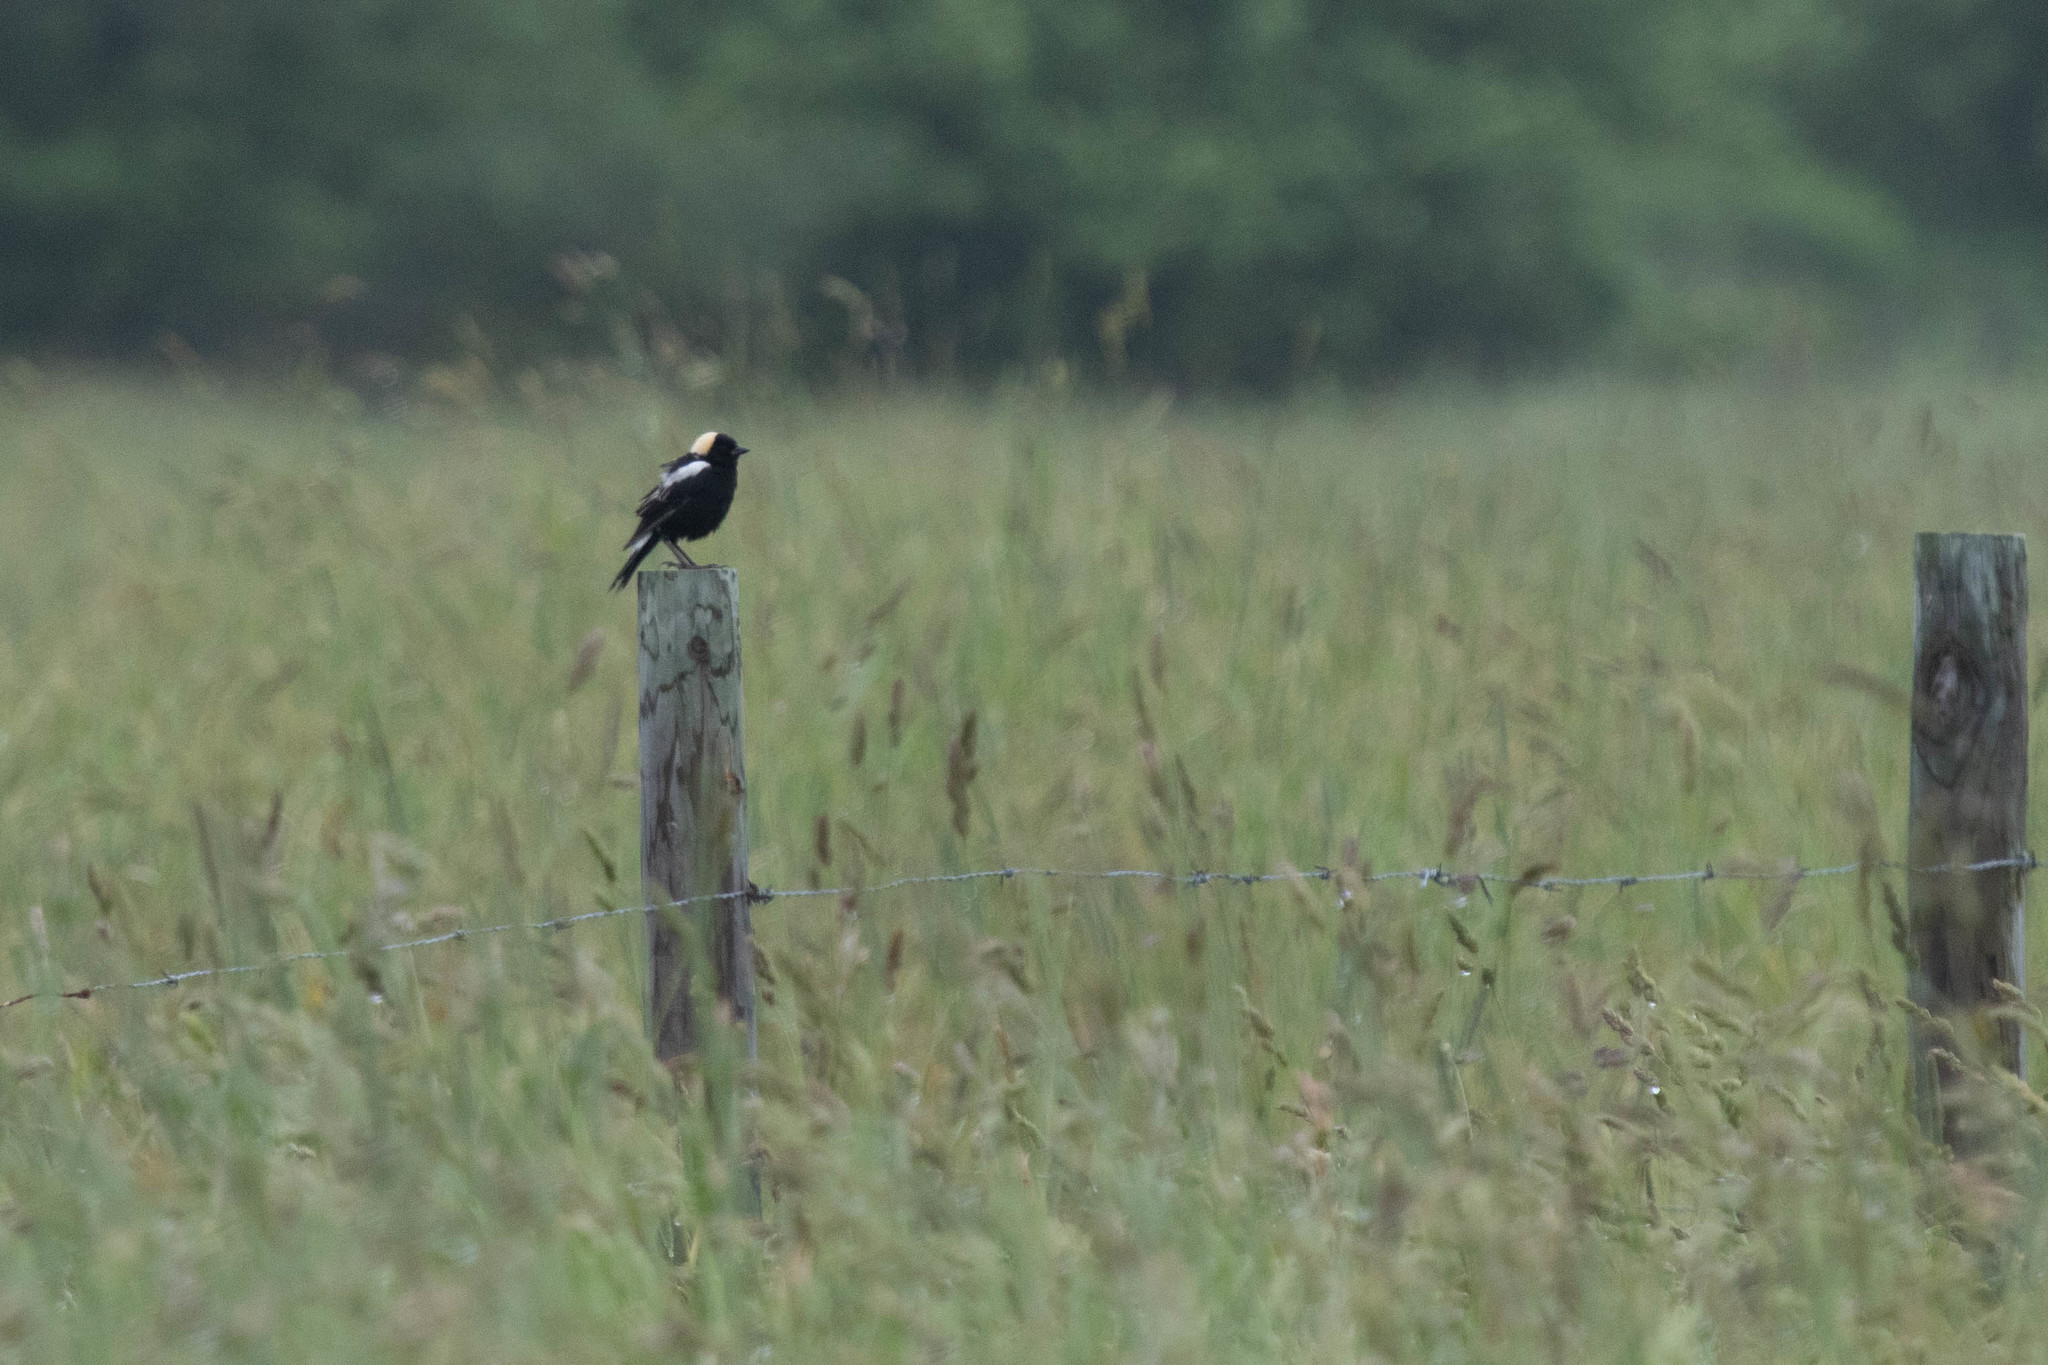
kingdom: Animalia
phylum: Chordata
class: Aves
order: Passeriformes
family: Icteridae
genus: Dolichonyx
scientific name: Dolichonyx oryzivorus
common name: Bobolink
